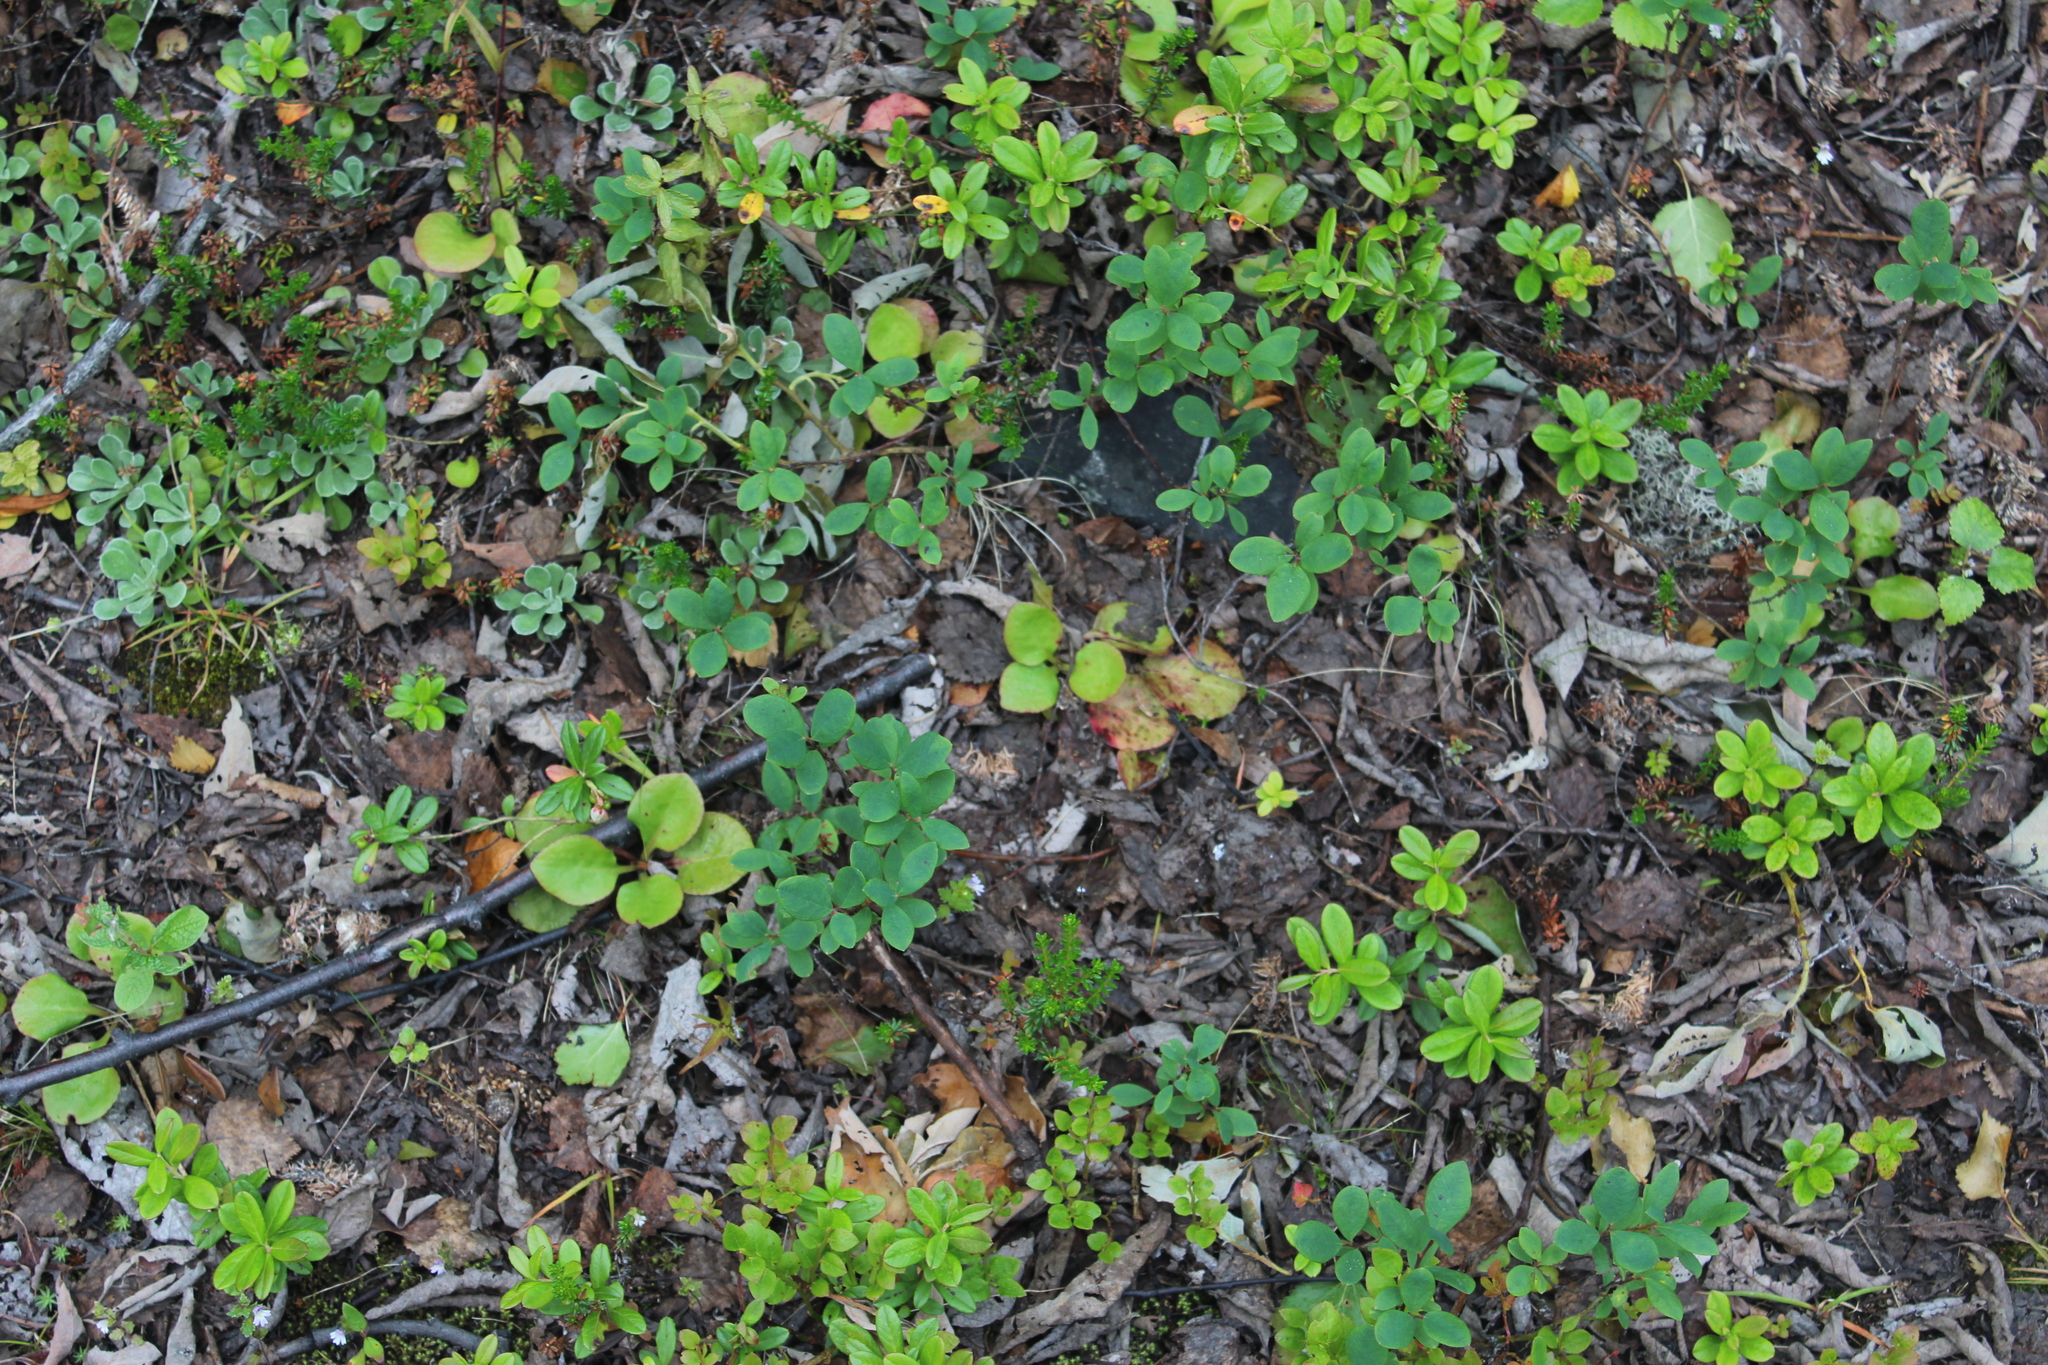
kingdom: Plantae
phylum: Tracheophyta
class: Magnoliopsida
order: Ericales
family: Ericaceae
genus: Vaccinium
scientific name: Vaccinium uliginosum
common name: Bog bilberry
